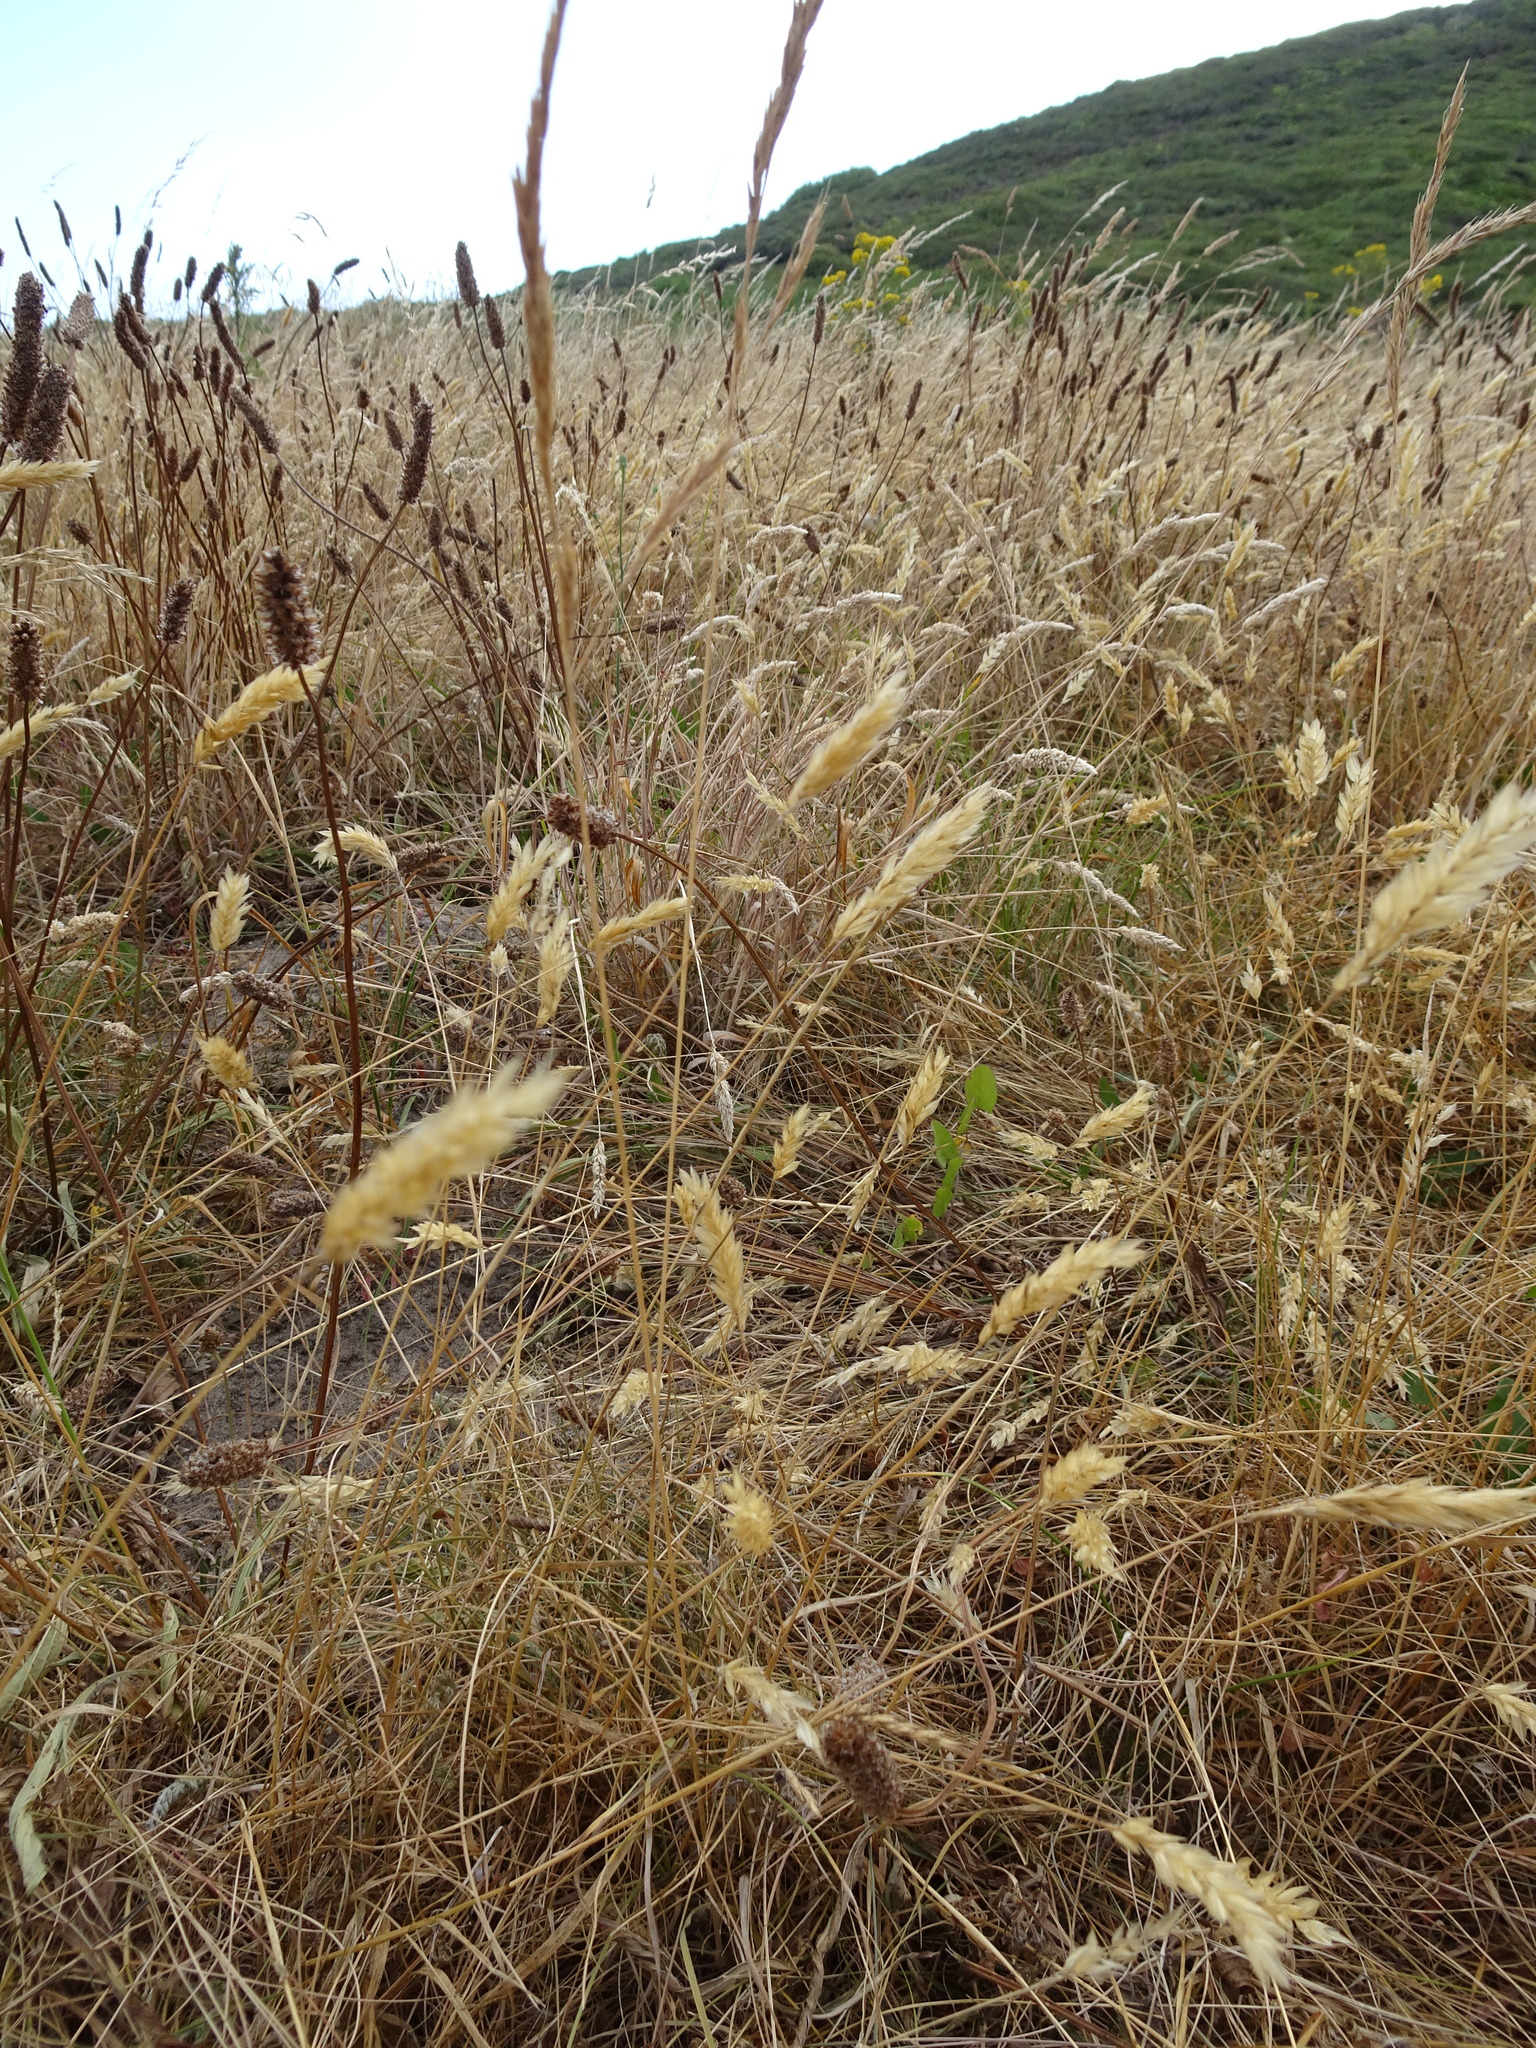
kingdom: Plantae
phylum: Tracheophyta
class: Liliopsida
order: Poales
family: Poaceae
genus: Anthoxanthum
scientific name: Anthoxanthum odoratum
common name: Sweet vernalgrass
